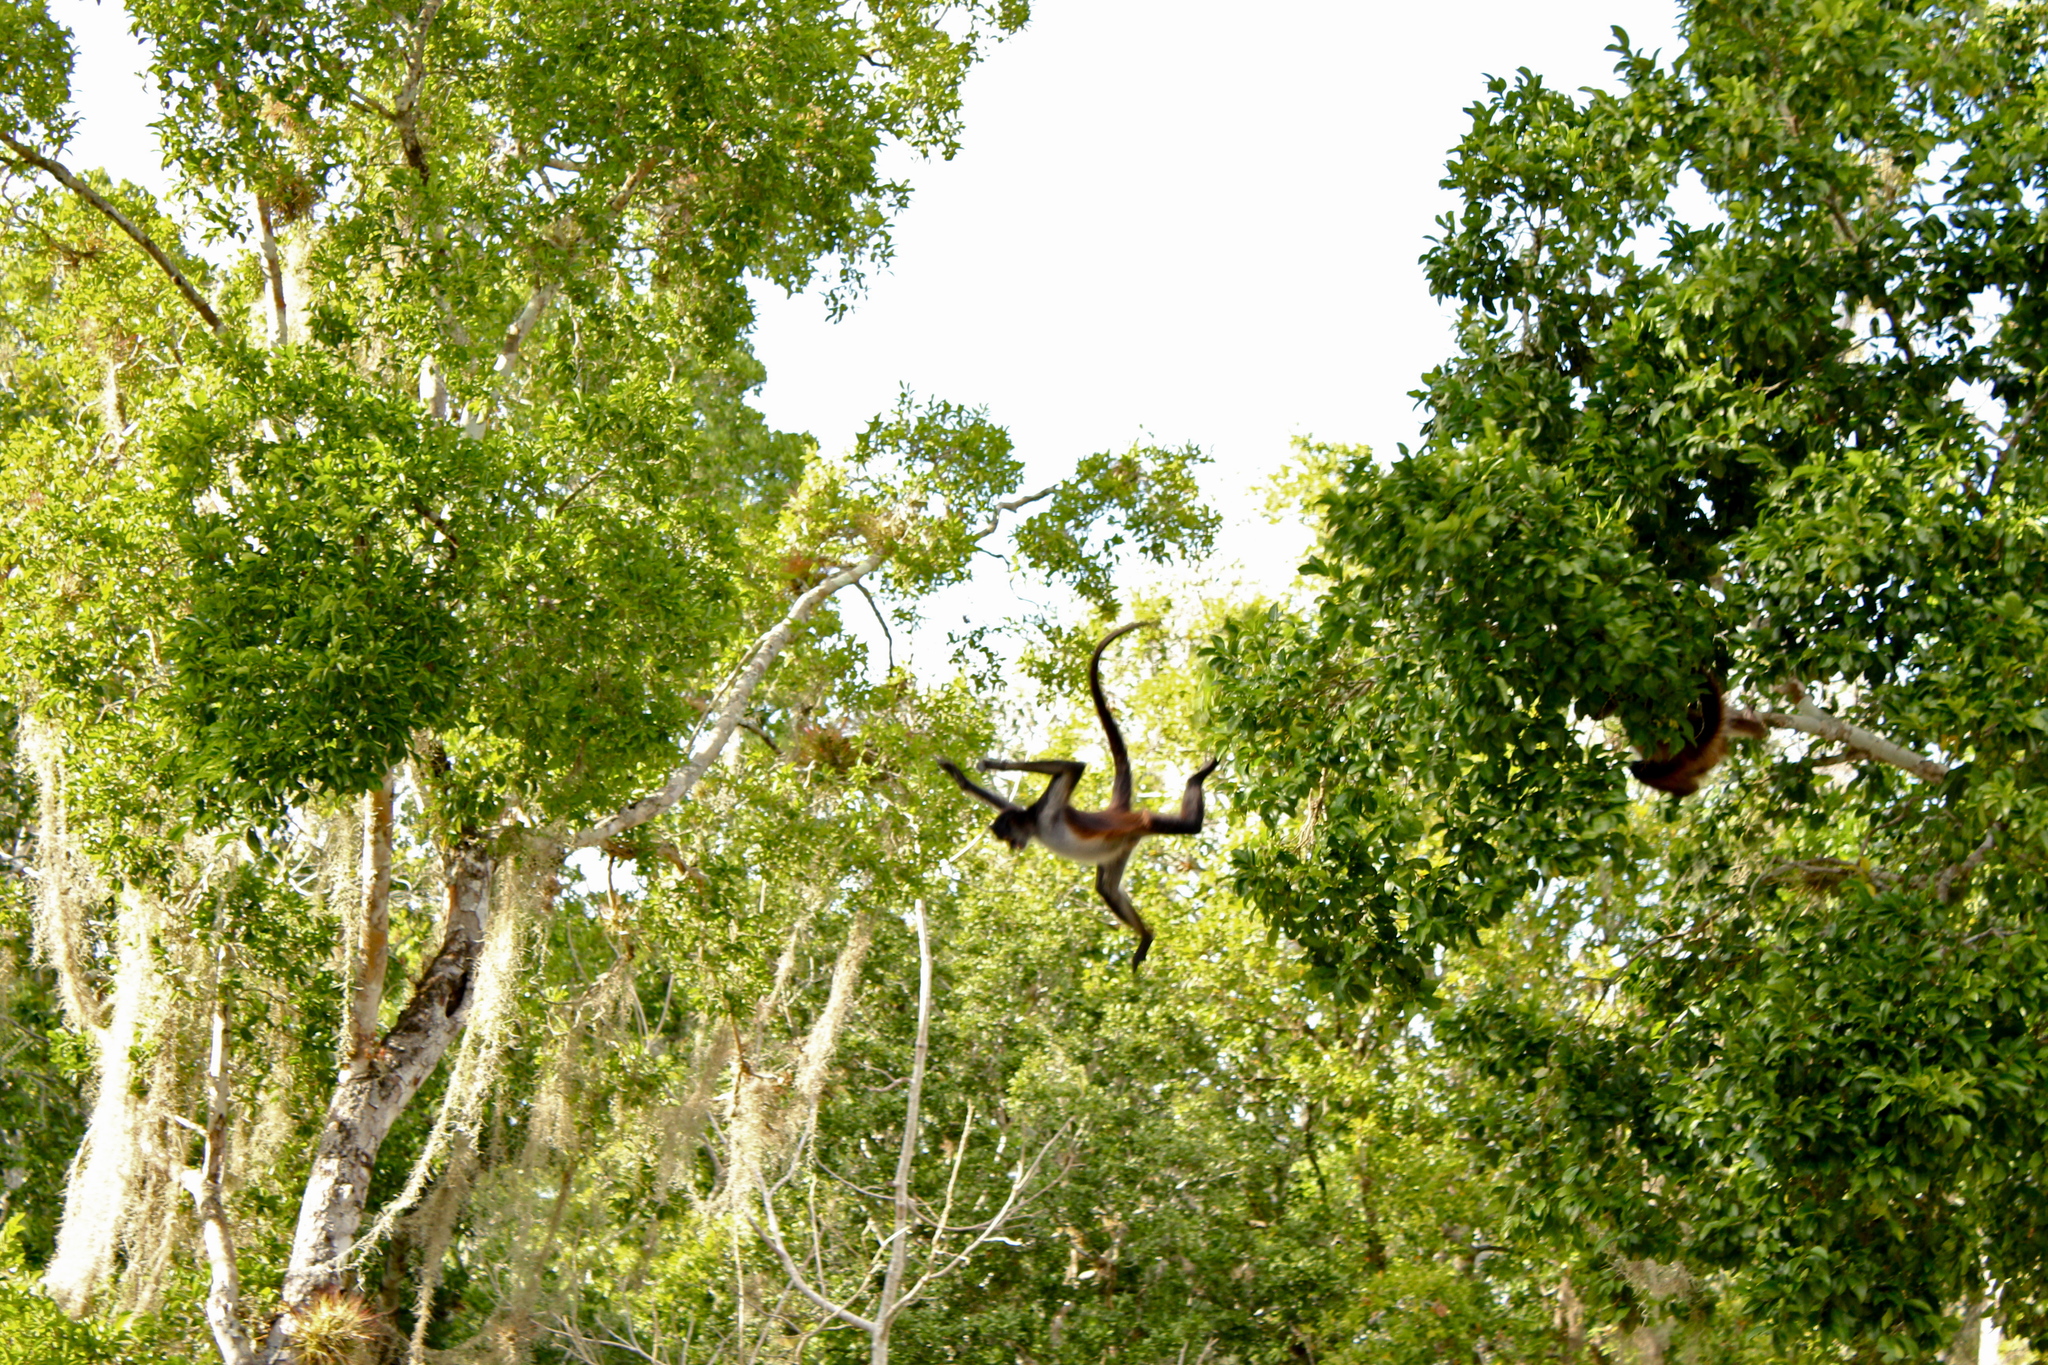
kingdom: Animalia
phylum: Chordata
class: Mammalia
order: Primates
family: Atelidae
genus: Ateles
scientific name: Ateles geoffroyi
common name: Black-handed spider monkey
